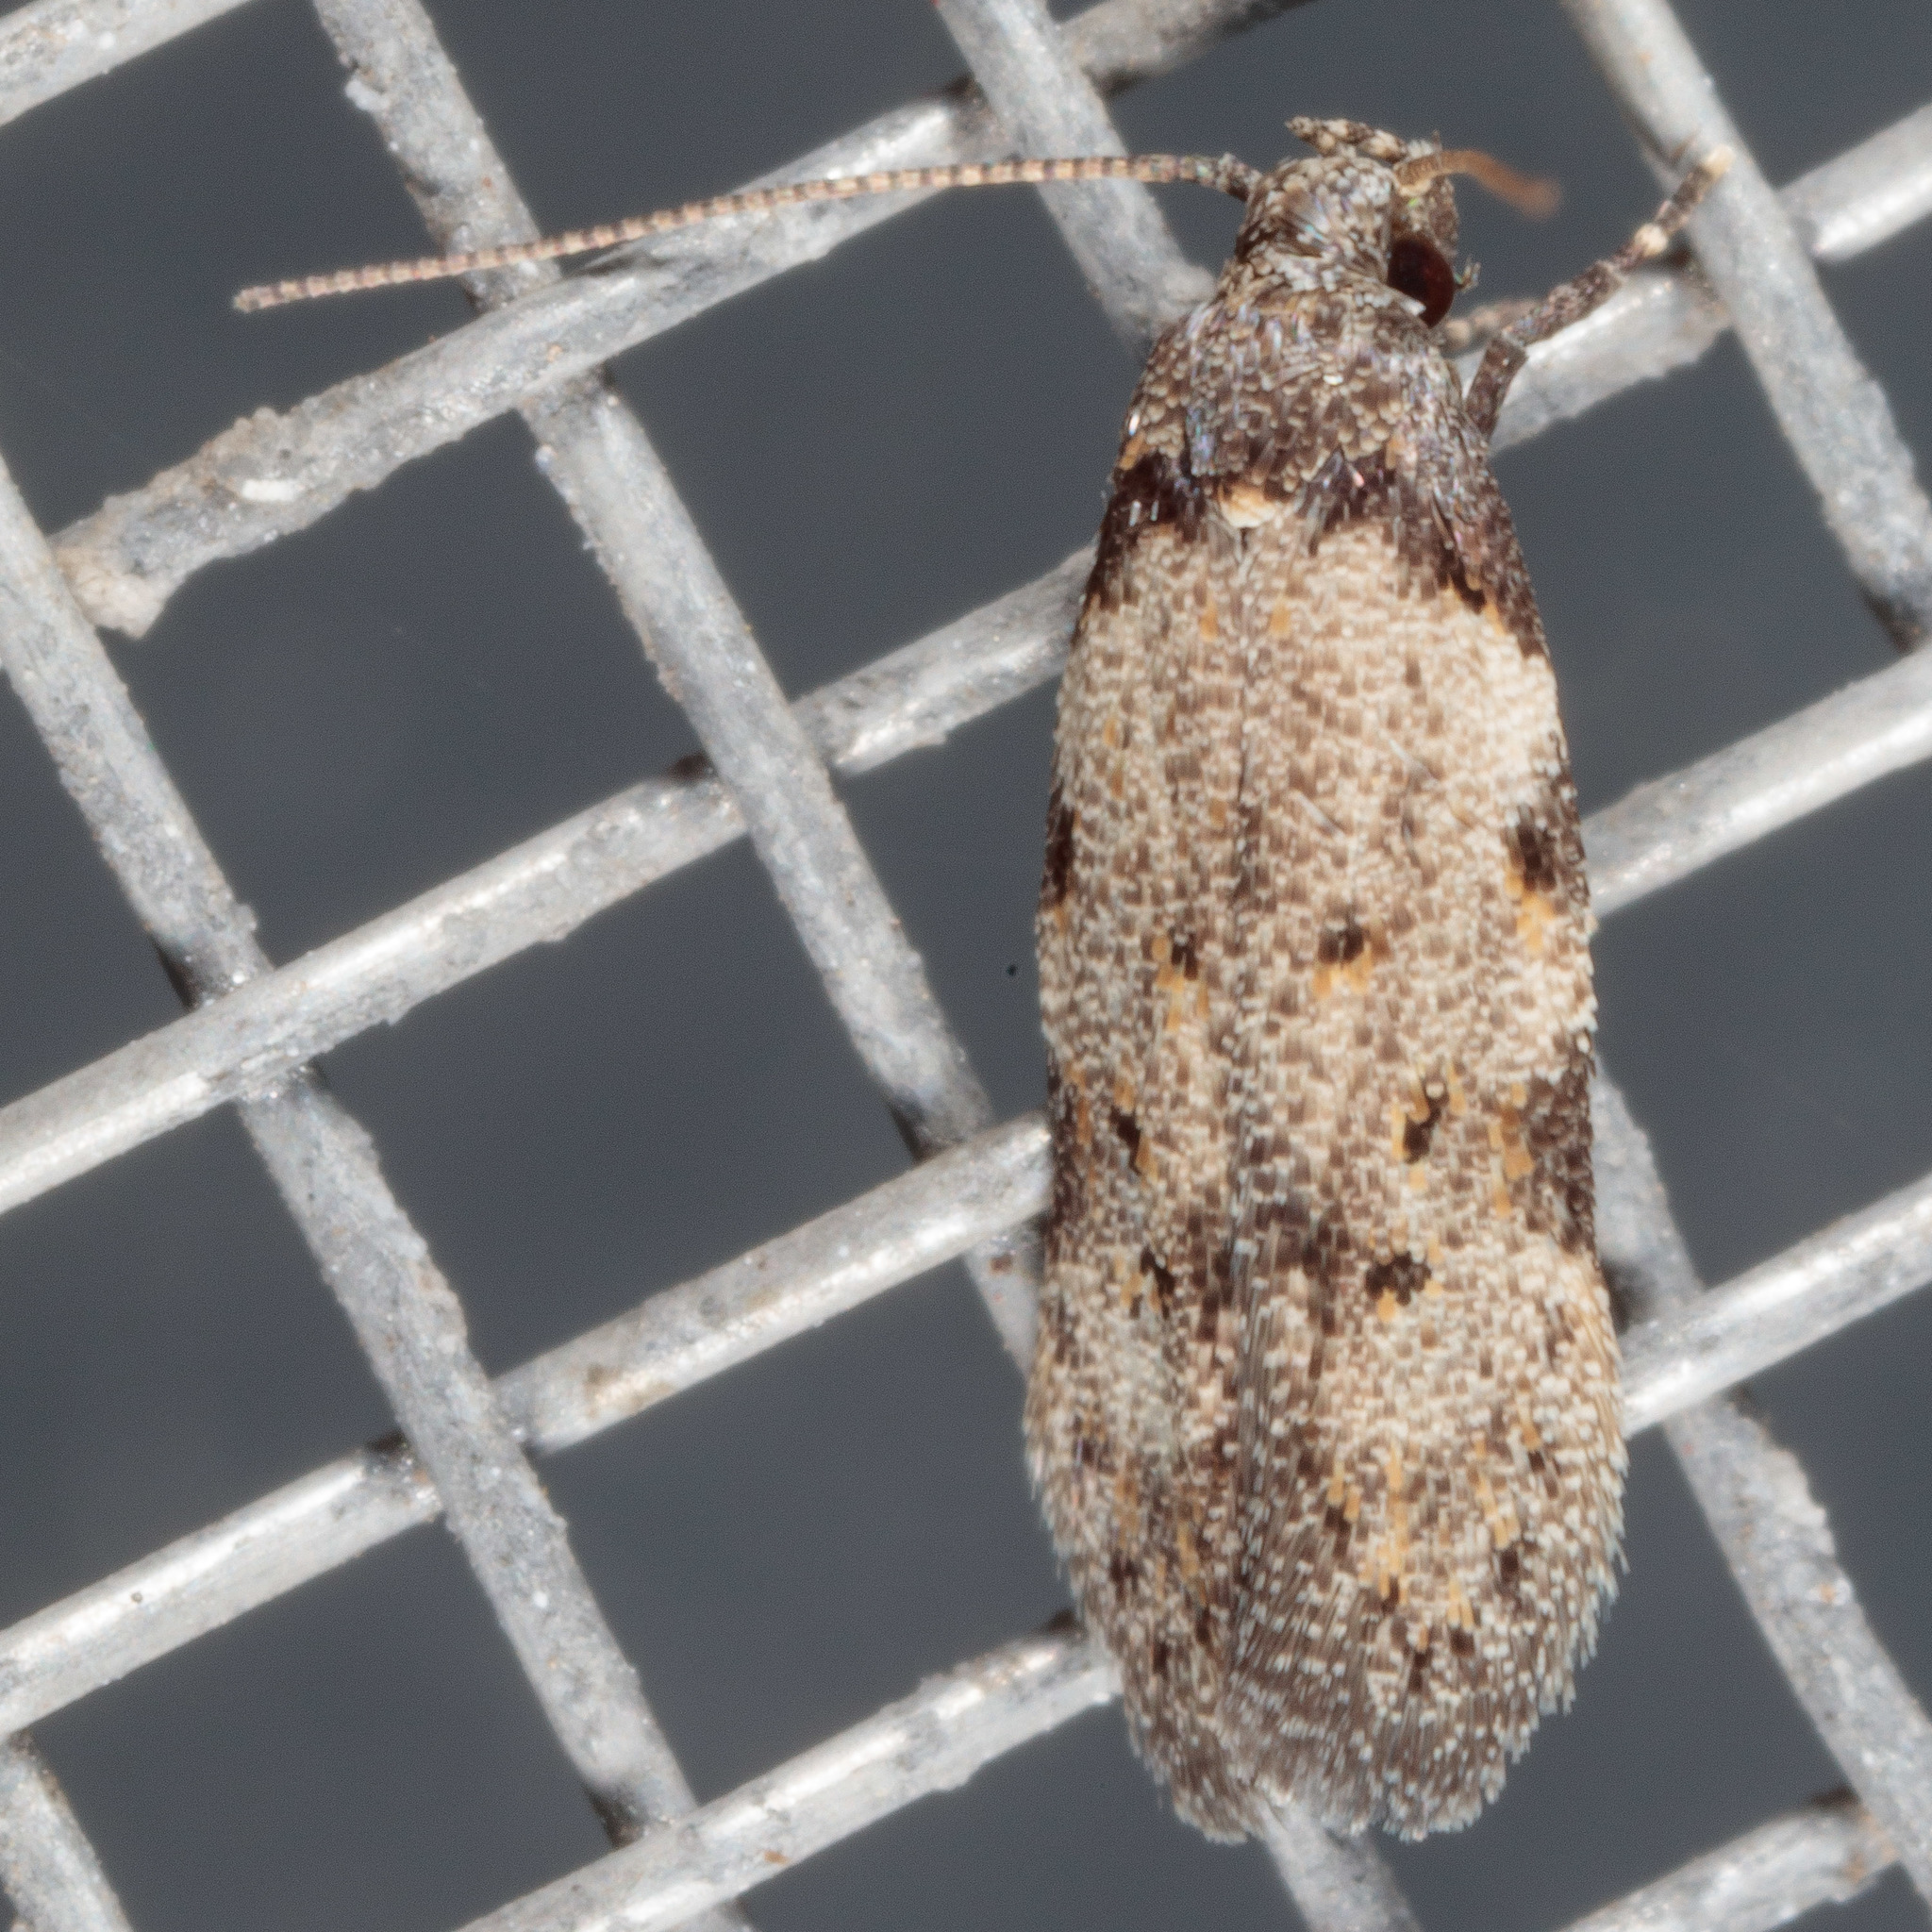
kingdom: Animalia
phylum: Arthropoda
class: Insecta
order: Lepidoptera
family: Autostichidae
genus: Taygete
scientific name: Taygete attributella
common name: Triangle-marked twirler moth
